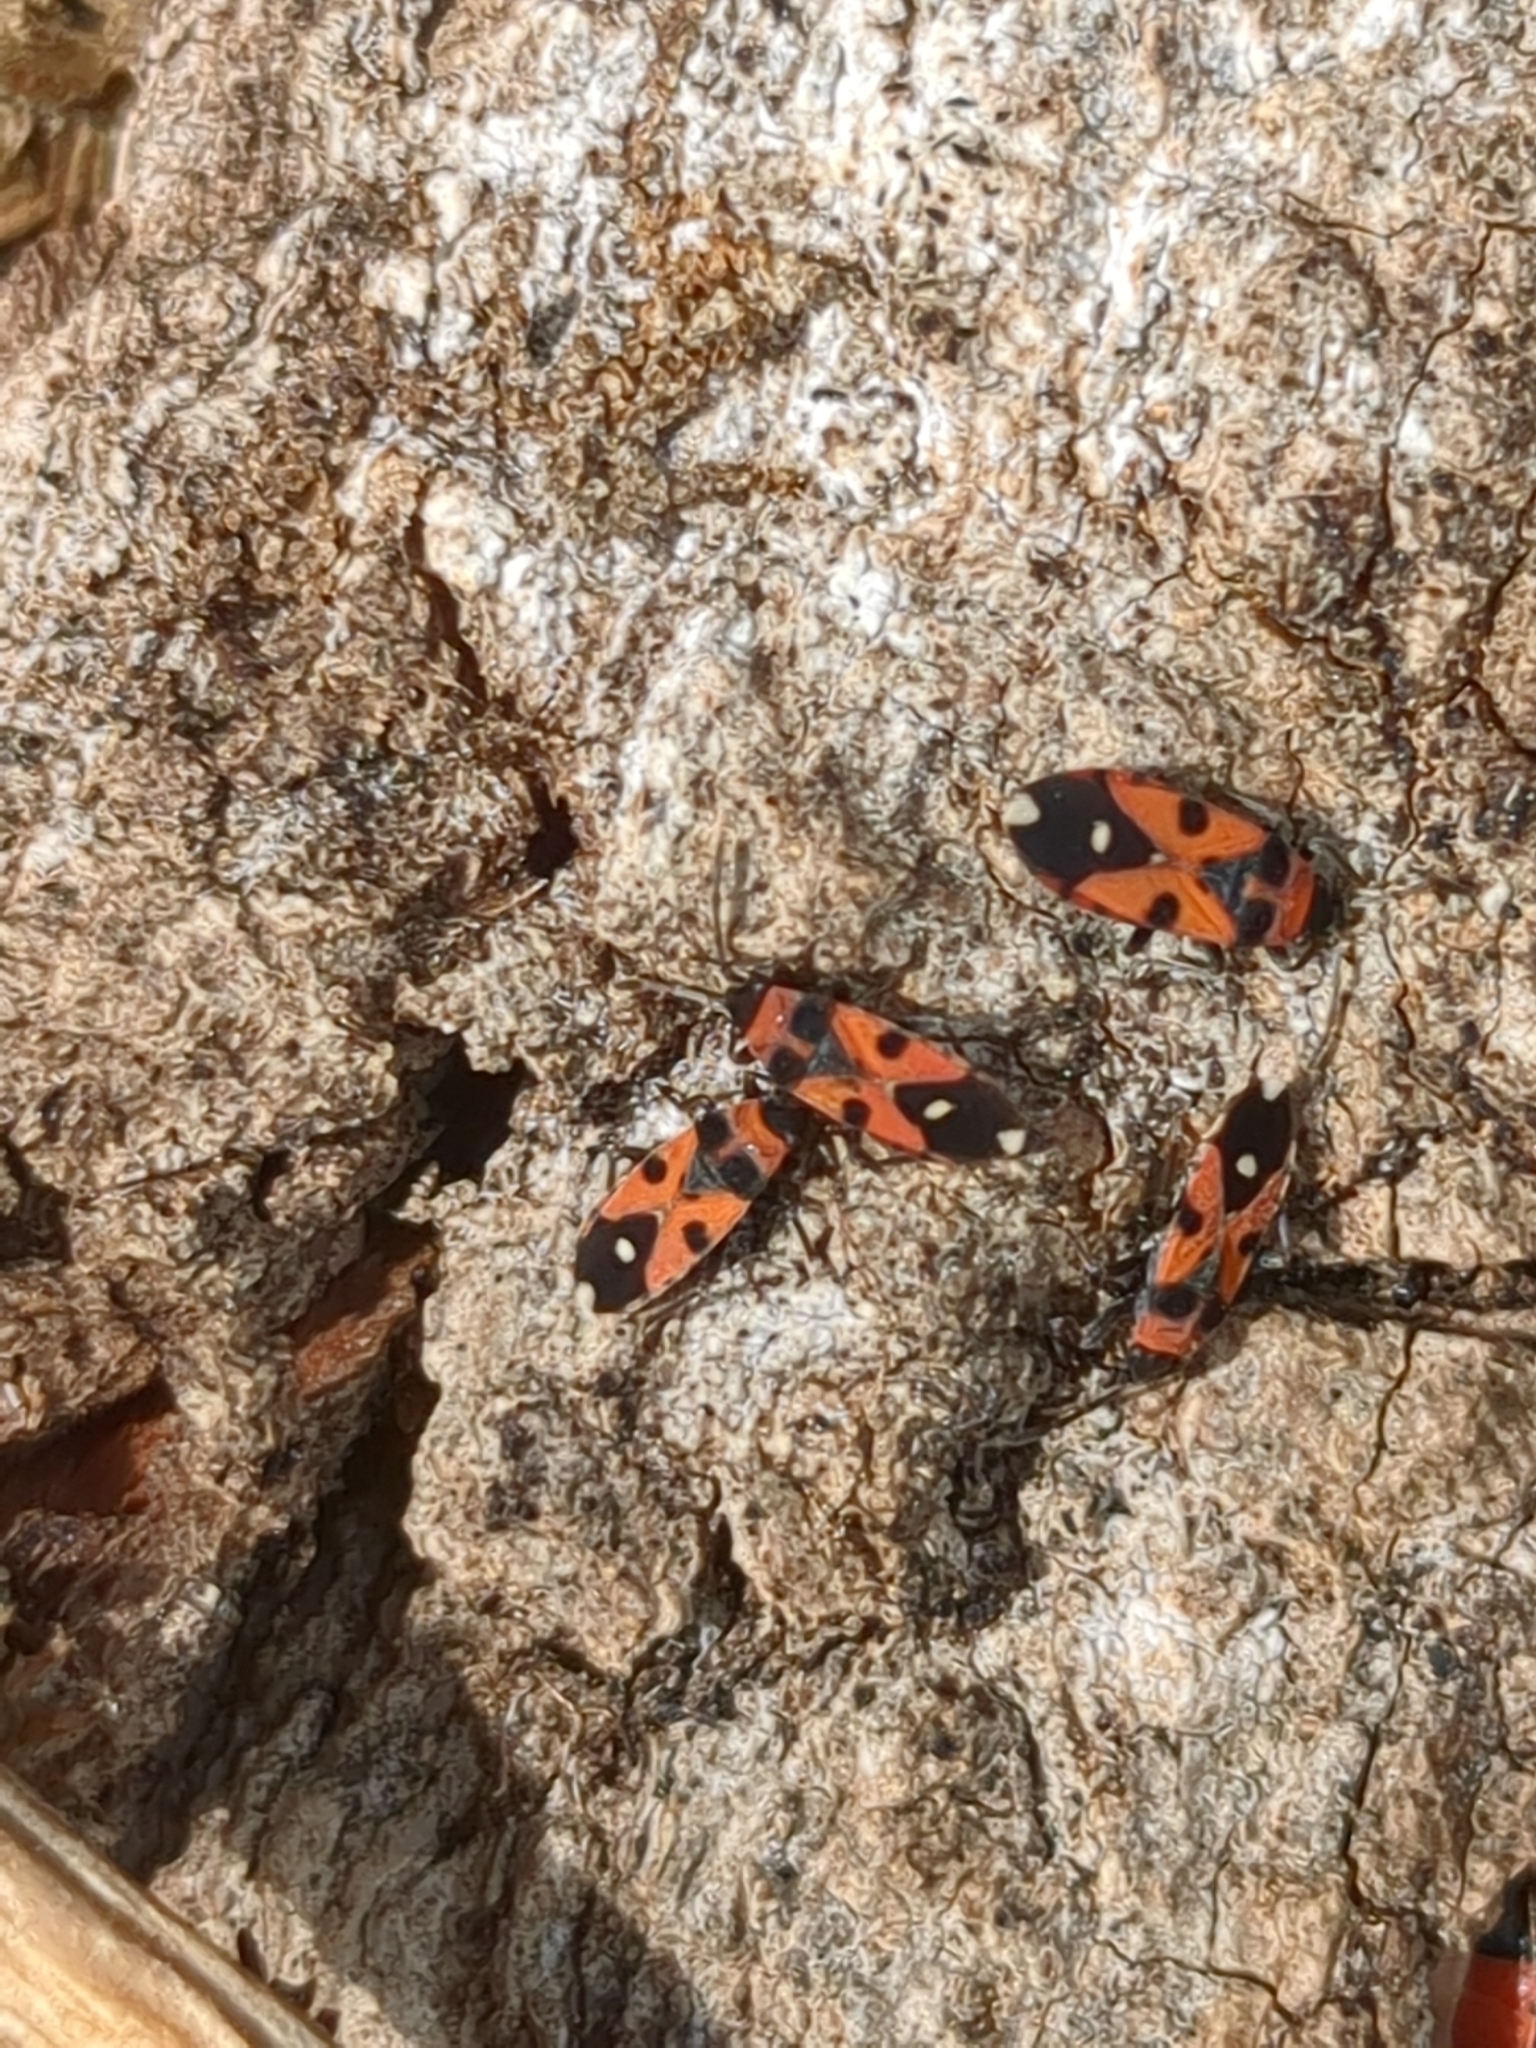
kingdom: Animalia
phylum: Arthropoda
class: Insecta
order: Hemiptera
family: Lygaeidae
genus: Horvathiolus
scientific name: Horvathiolus superbus
